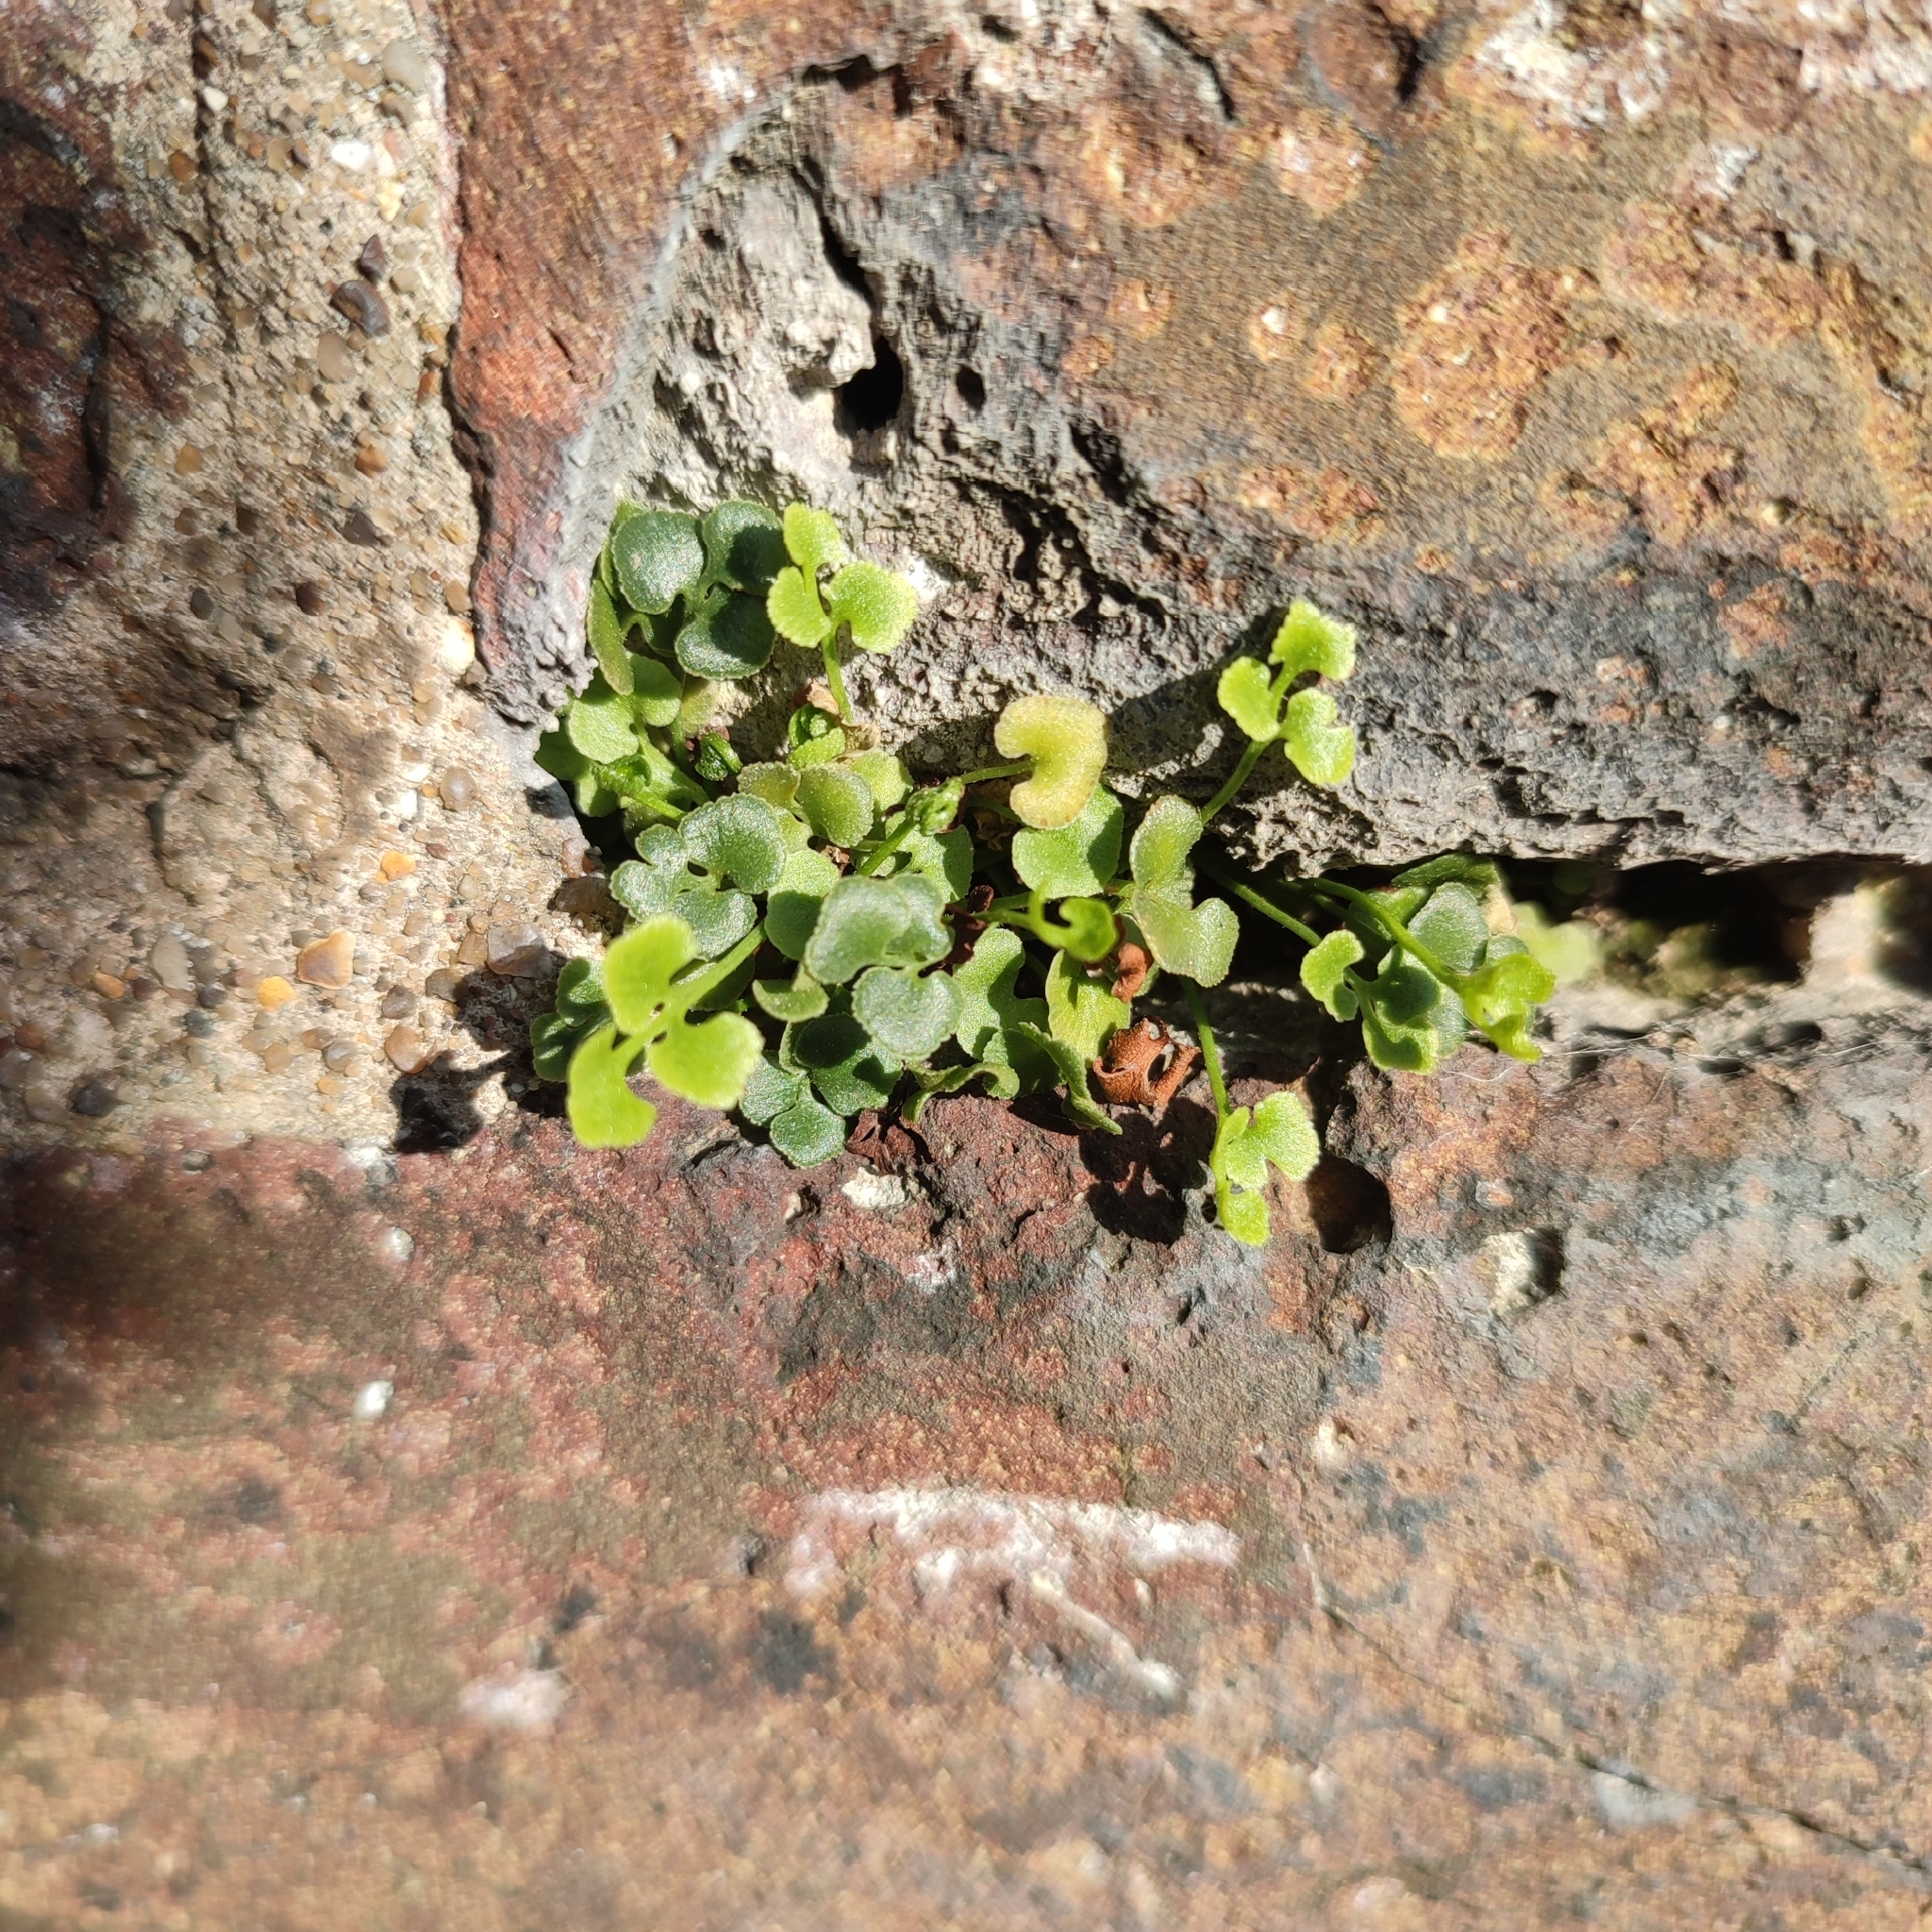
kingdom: Plantae
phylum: Tracheophyta
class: Polypodiopsida
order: Polypodiales
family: Aspleniaceae
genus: Asplenium
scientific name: Asplenium ruta-muraria
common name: Wall-rue
